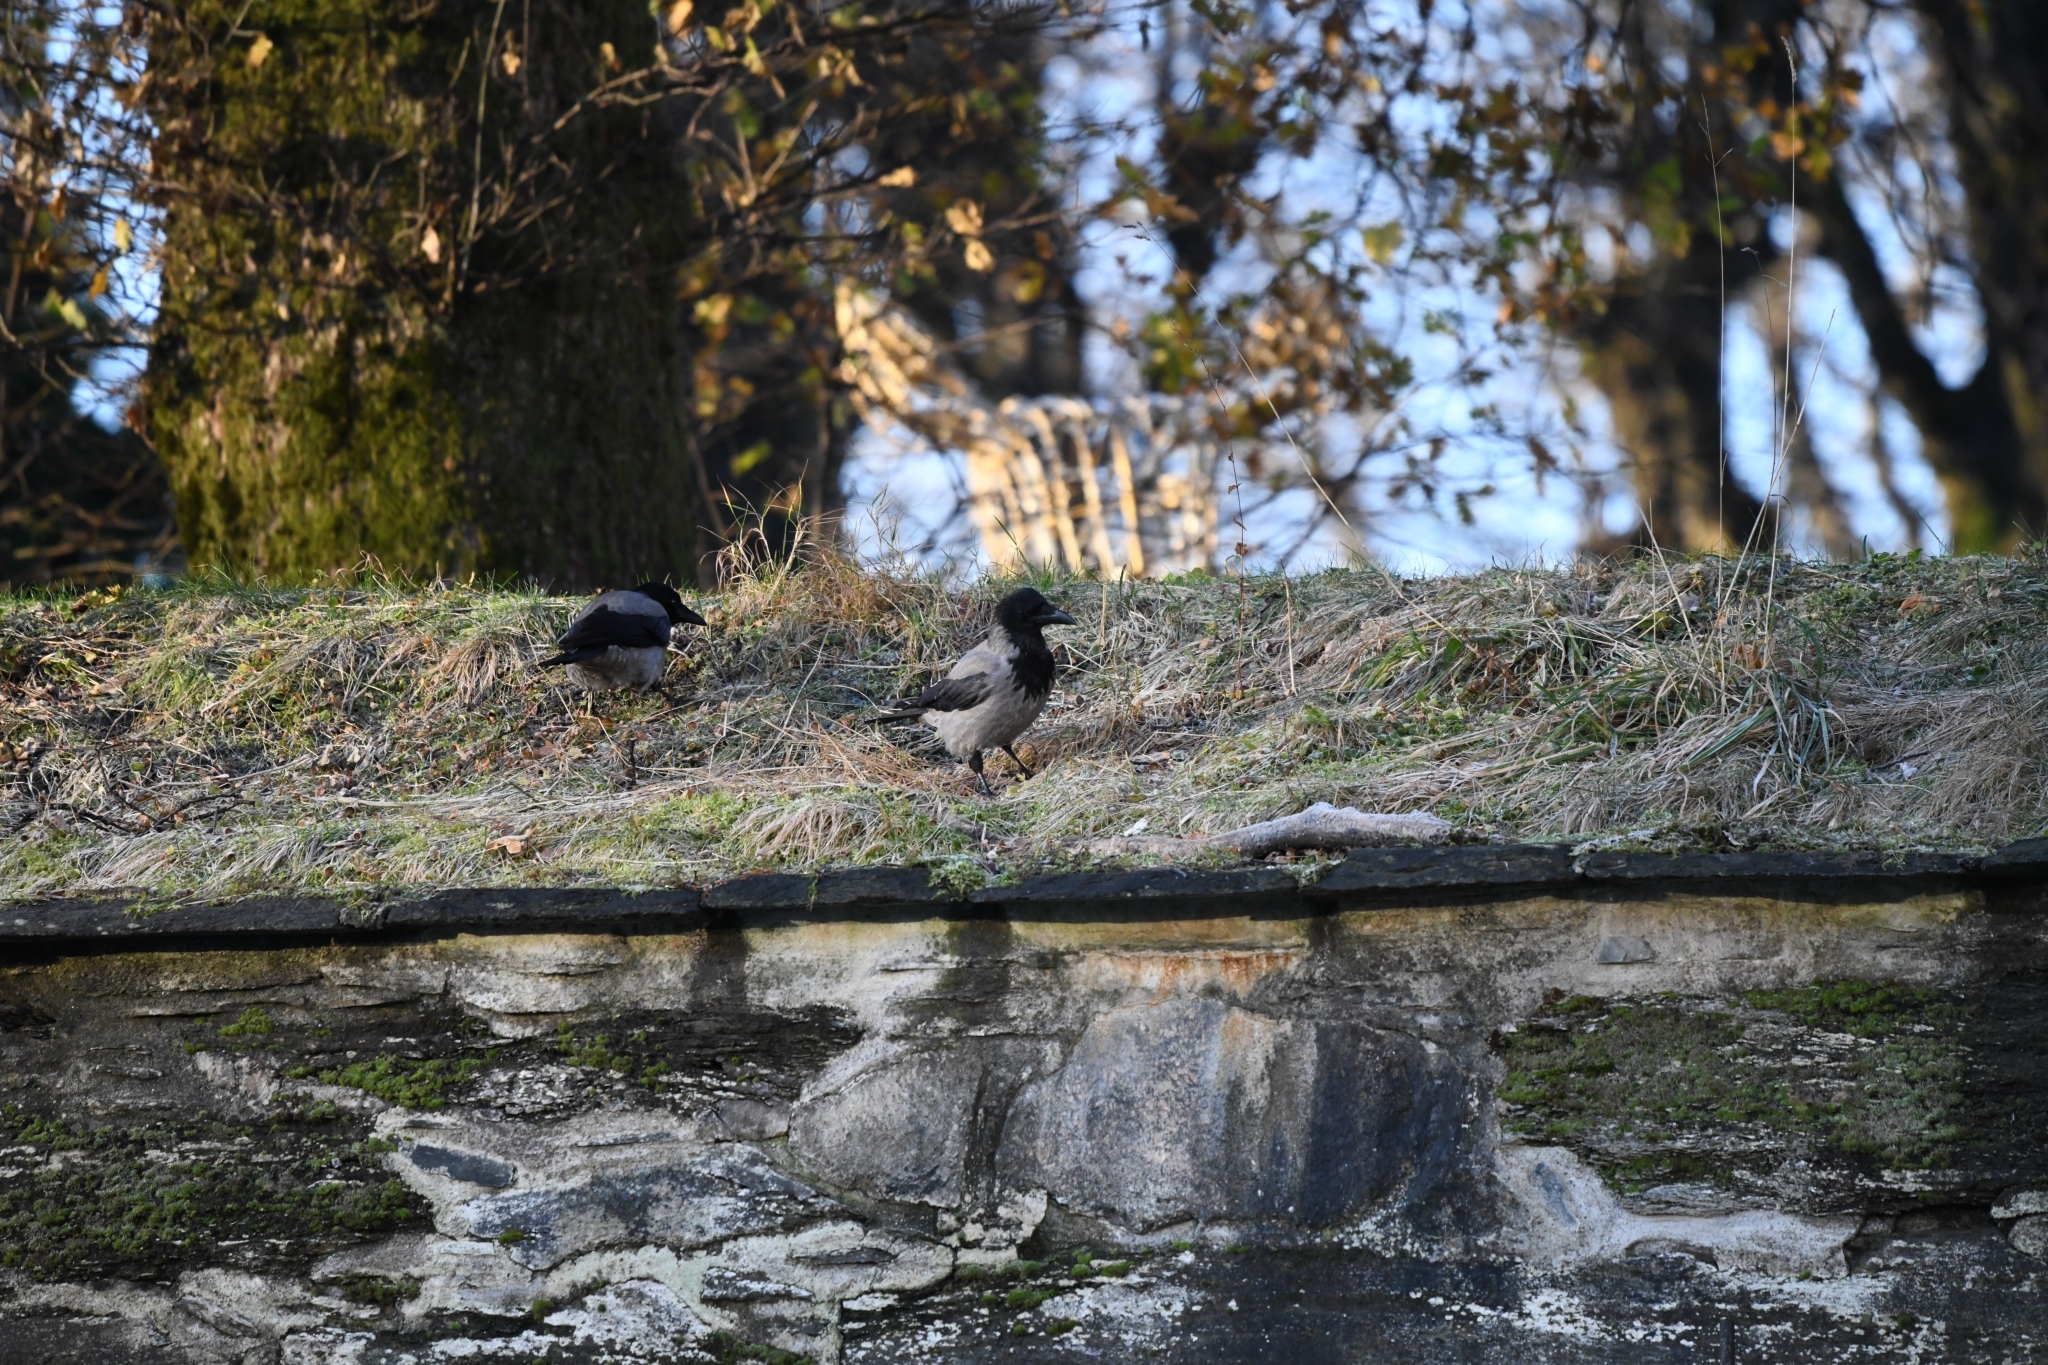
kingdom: Animalia
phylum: Chordata
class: Aves
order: Passeriformes
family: Corvidae
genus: Corvus
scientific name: Corvus cornix
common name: Hooded crow
